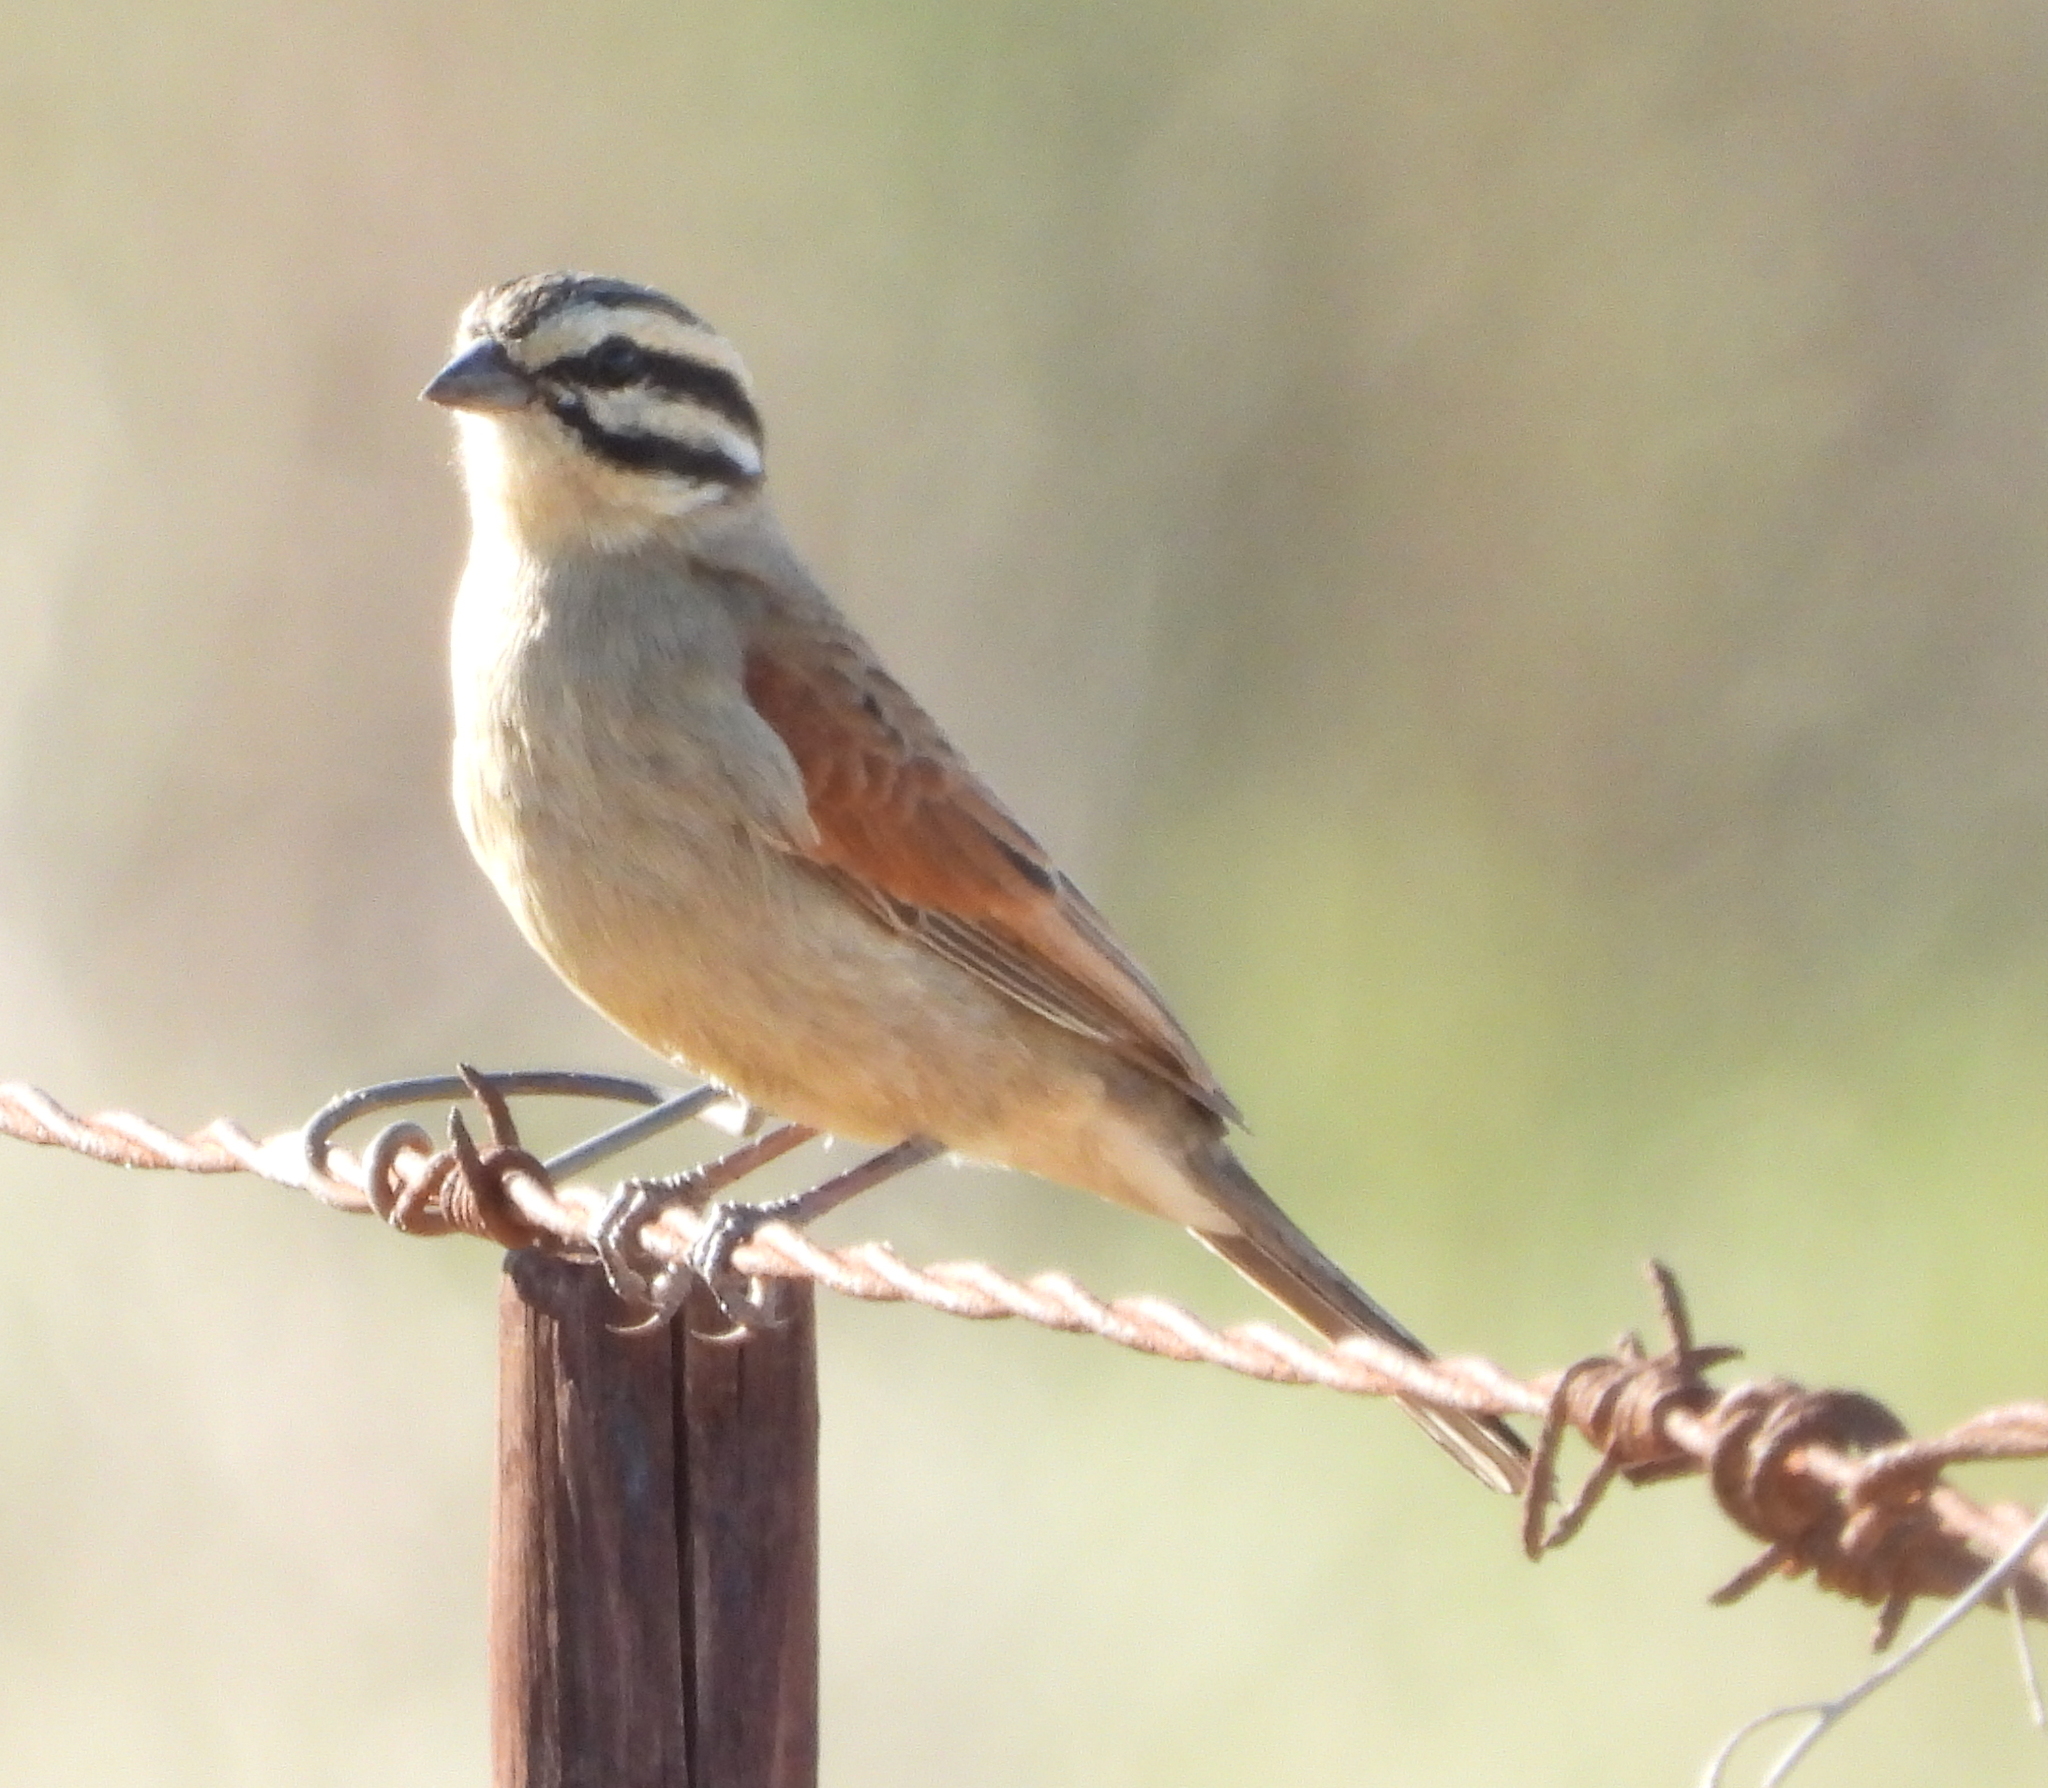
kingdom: Animalia
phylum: Chordata
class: Aves
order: Passeriformes
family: Emberizidae
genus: Emberiza
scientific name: Emberiza capensis
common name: Cape bunting
